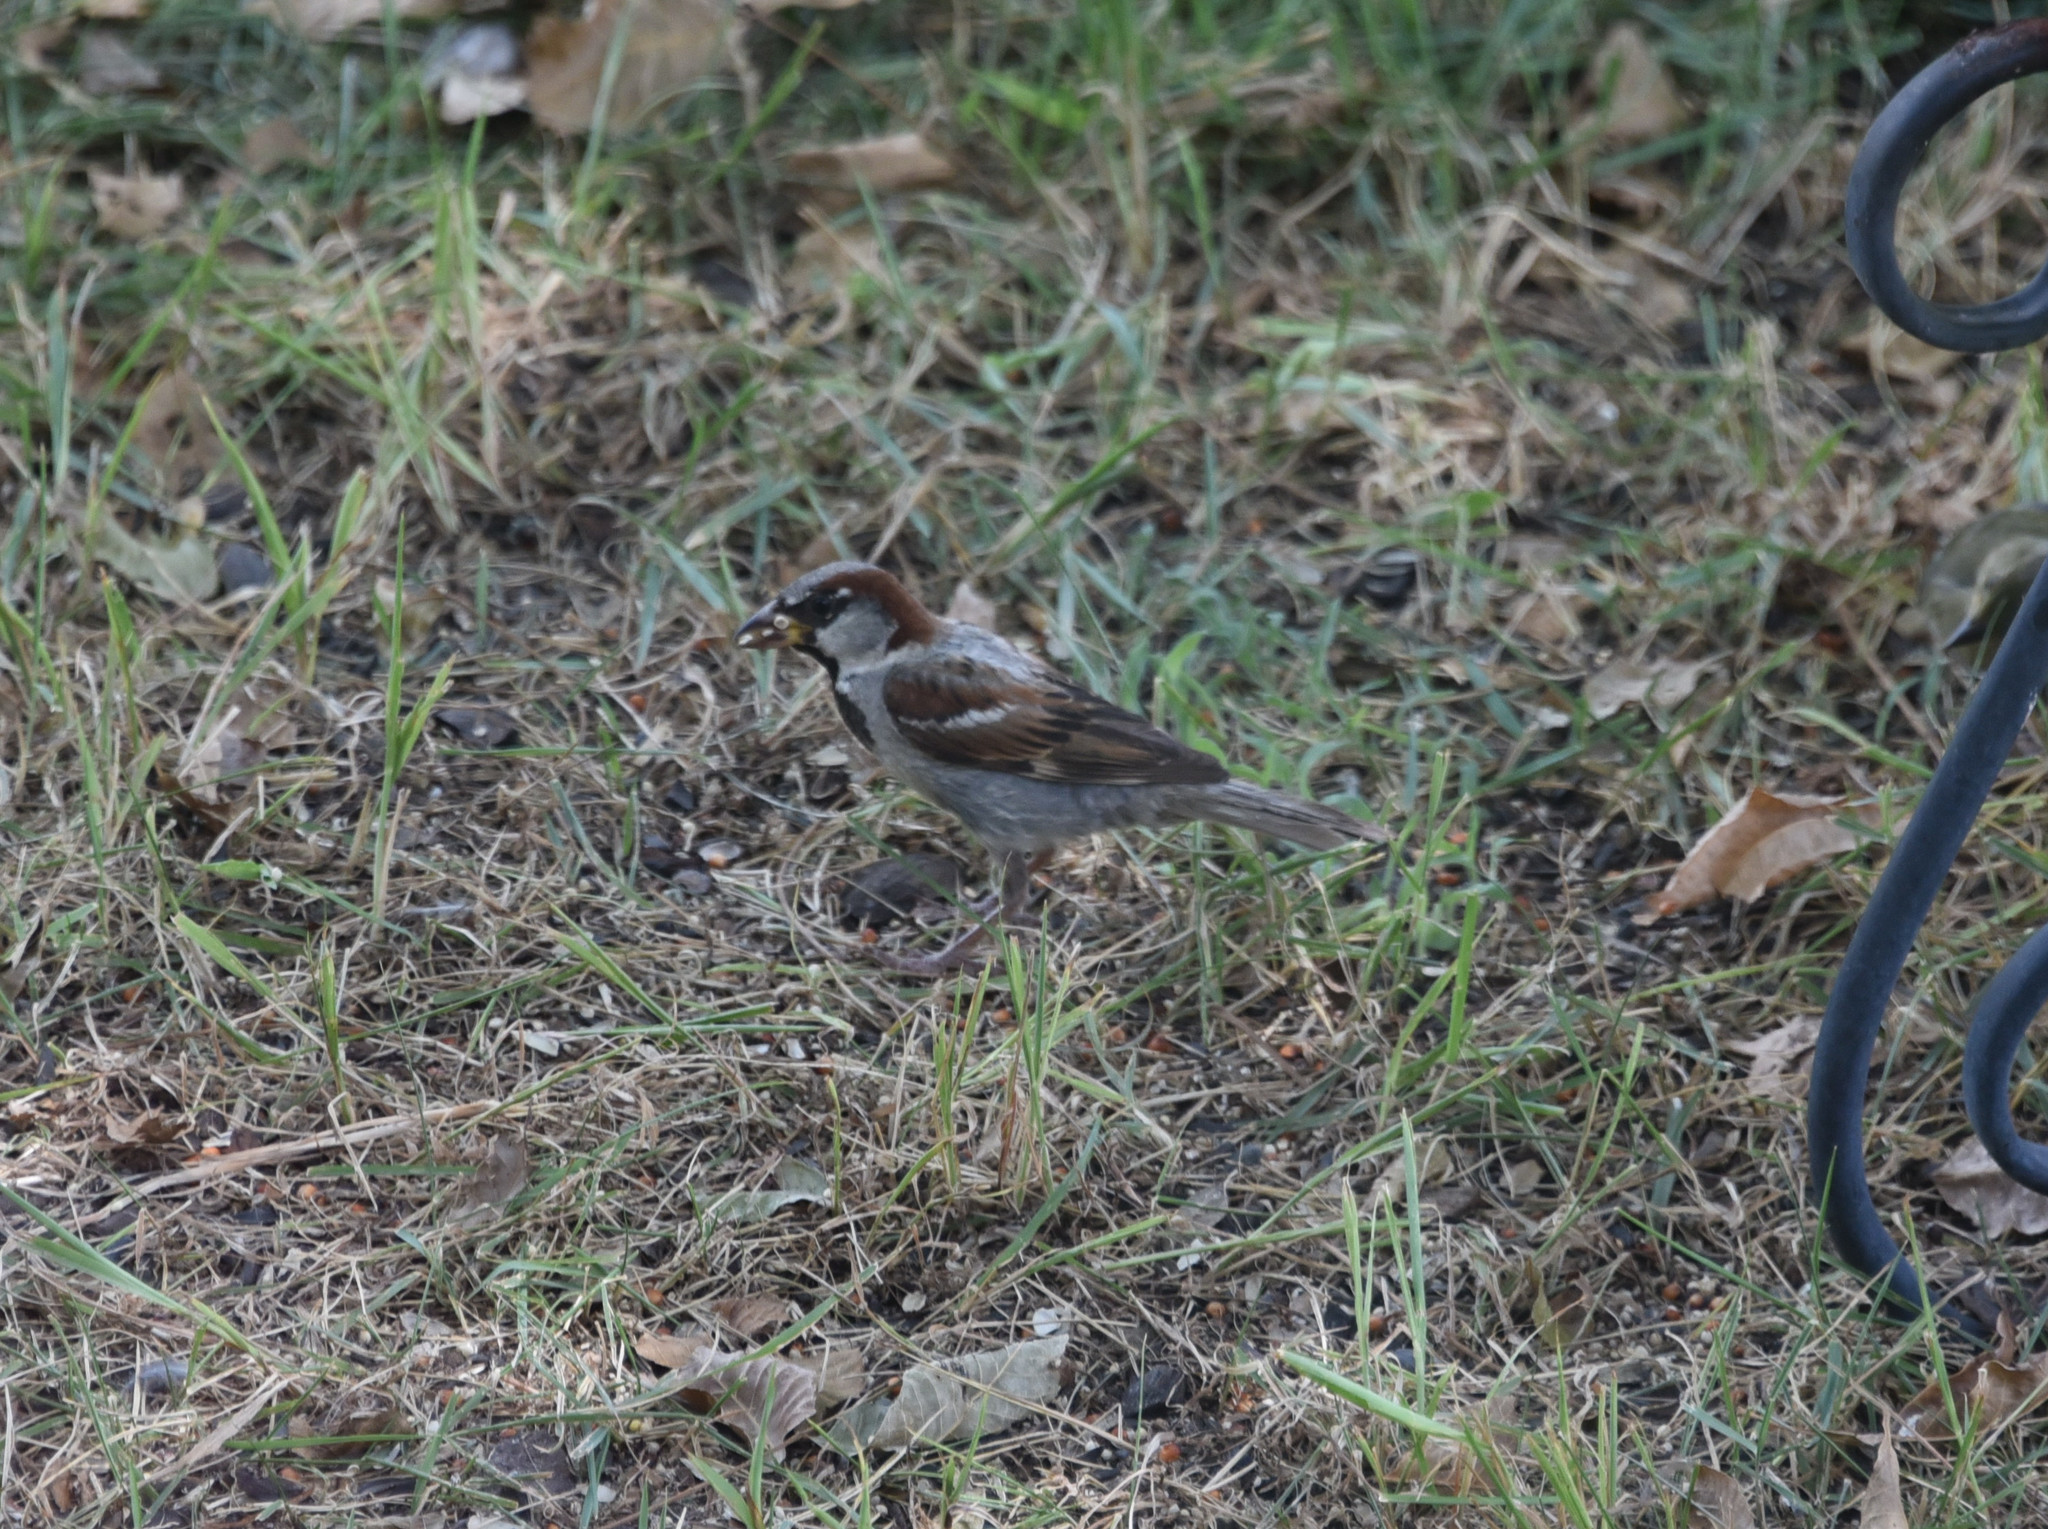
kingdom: Animalia
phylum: Chordata
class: Aves
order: Passeriformes
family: Passeridae
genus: Passer
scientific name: Passer domesticus
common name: House sparrow
